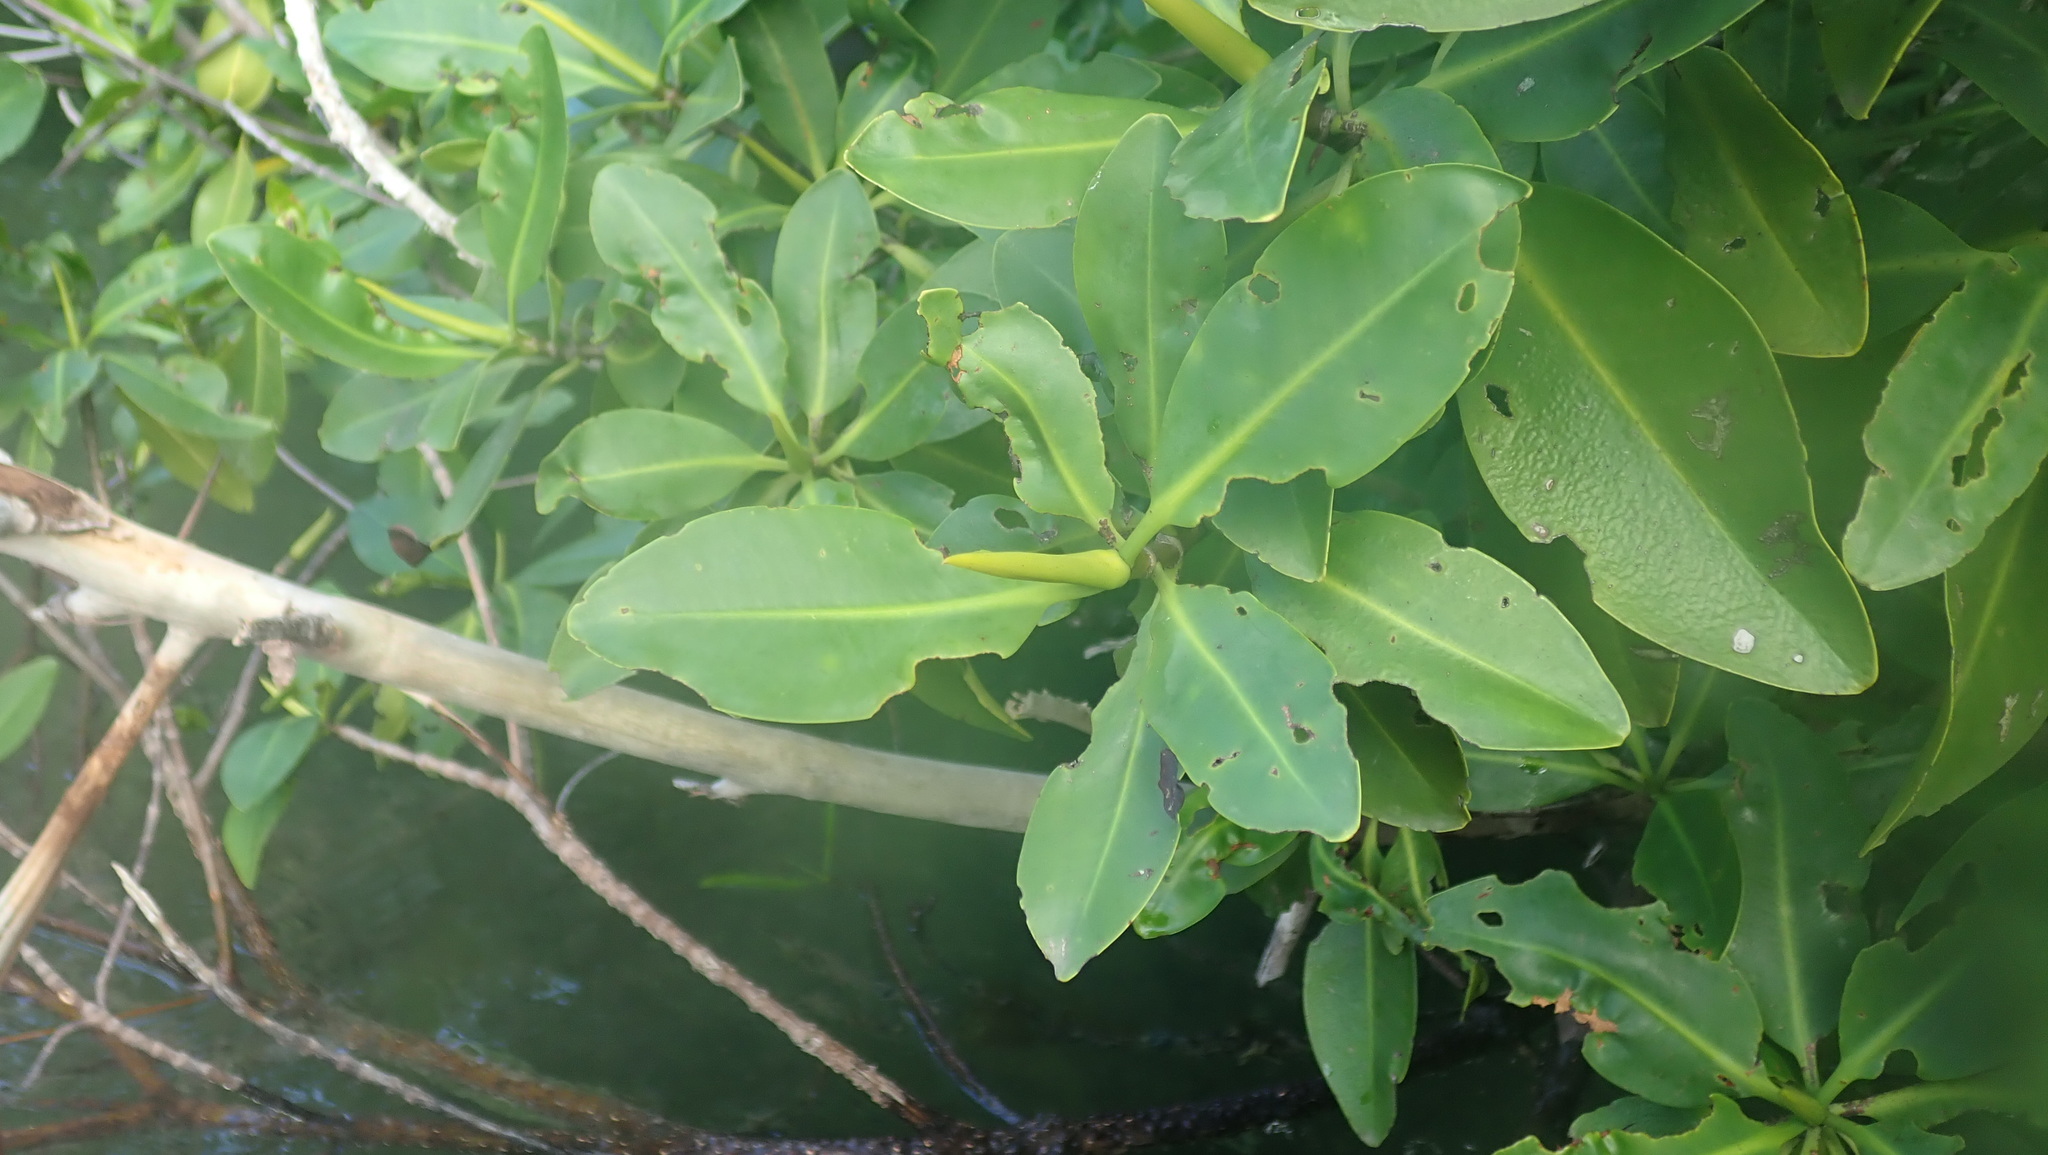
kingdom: Plantae
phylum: Tracheophyta
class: Magnoliopsida
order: Malpighiales
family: Rhizophoraceae
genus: Rhizophora
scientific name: Rhizophora mangle
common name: Red mangrove
